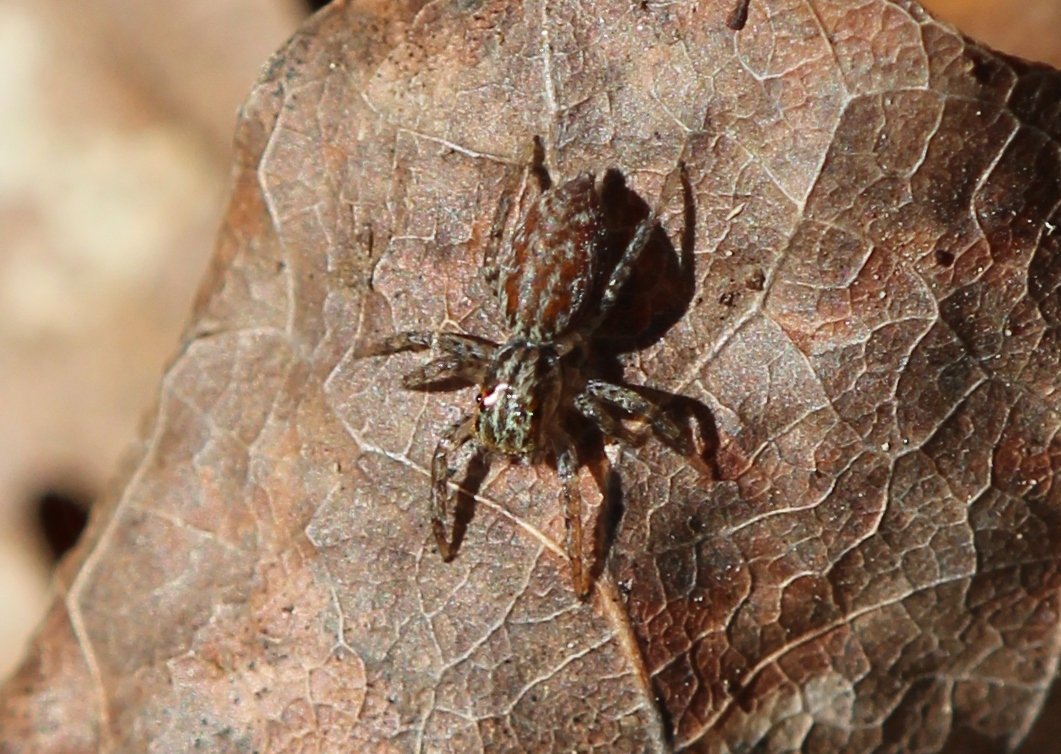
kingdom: Animalia
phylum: Arthropoda
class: Arachnida
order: Araneae
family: Salticidae
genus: Maevia
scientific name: Maevia inclemens
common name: Dimorphic jumper
